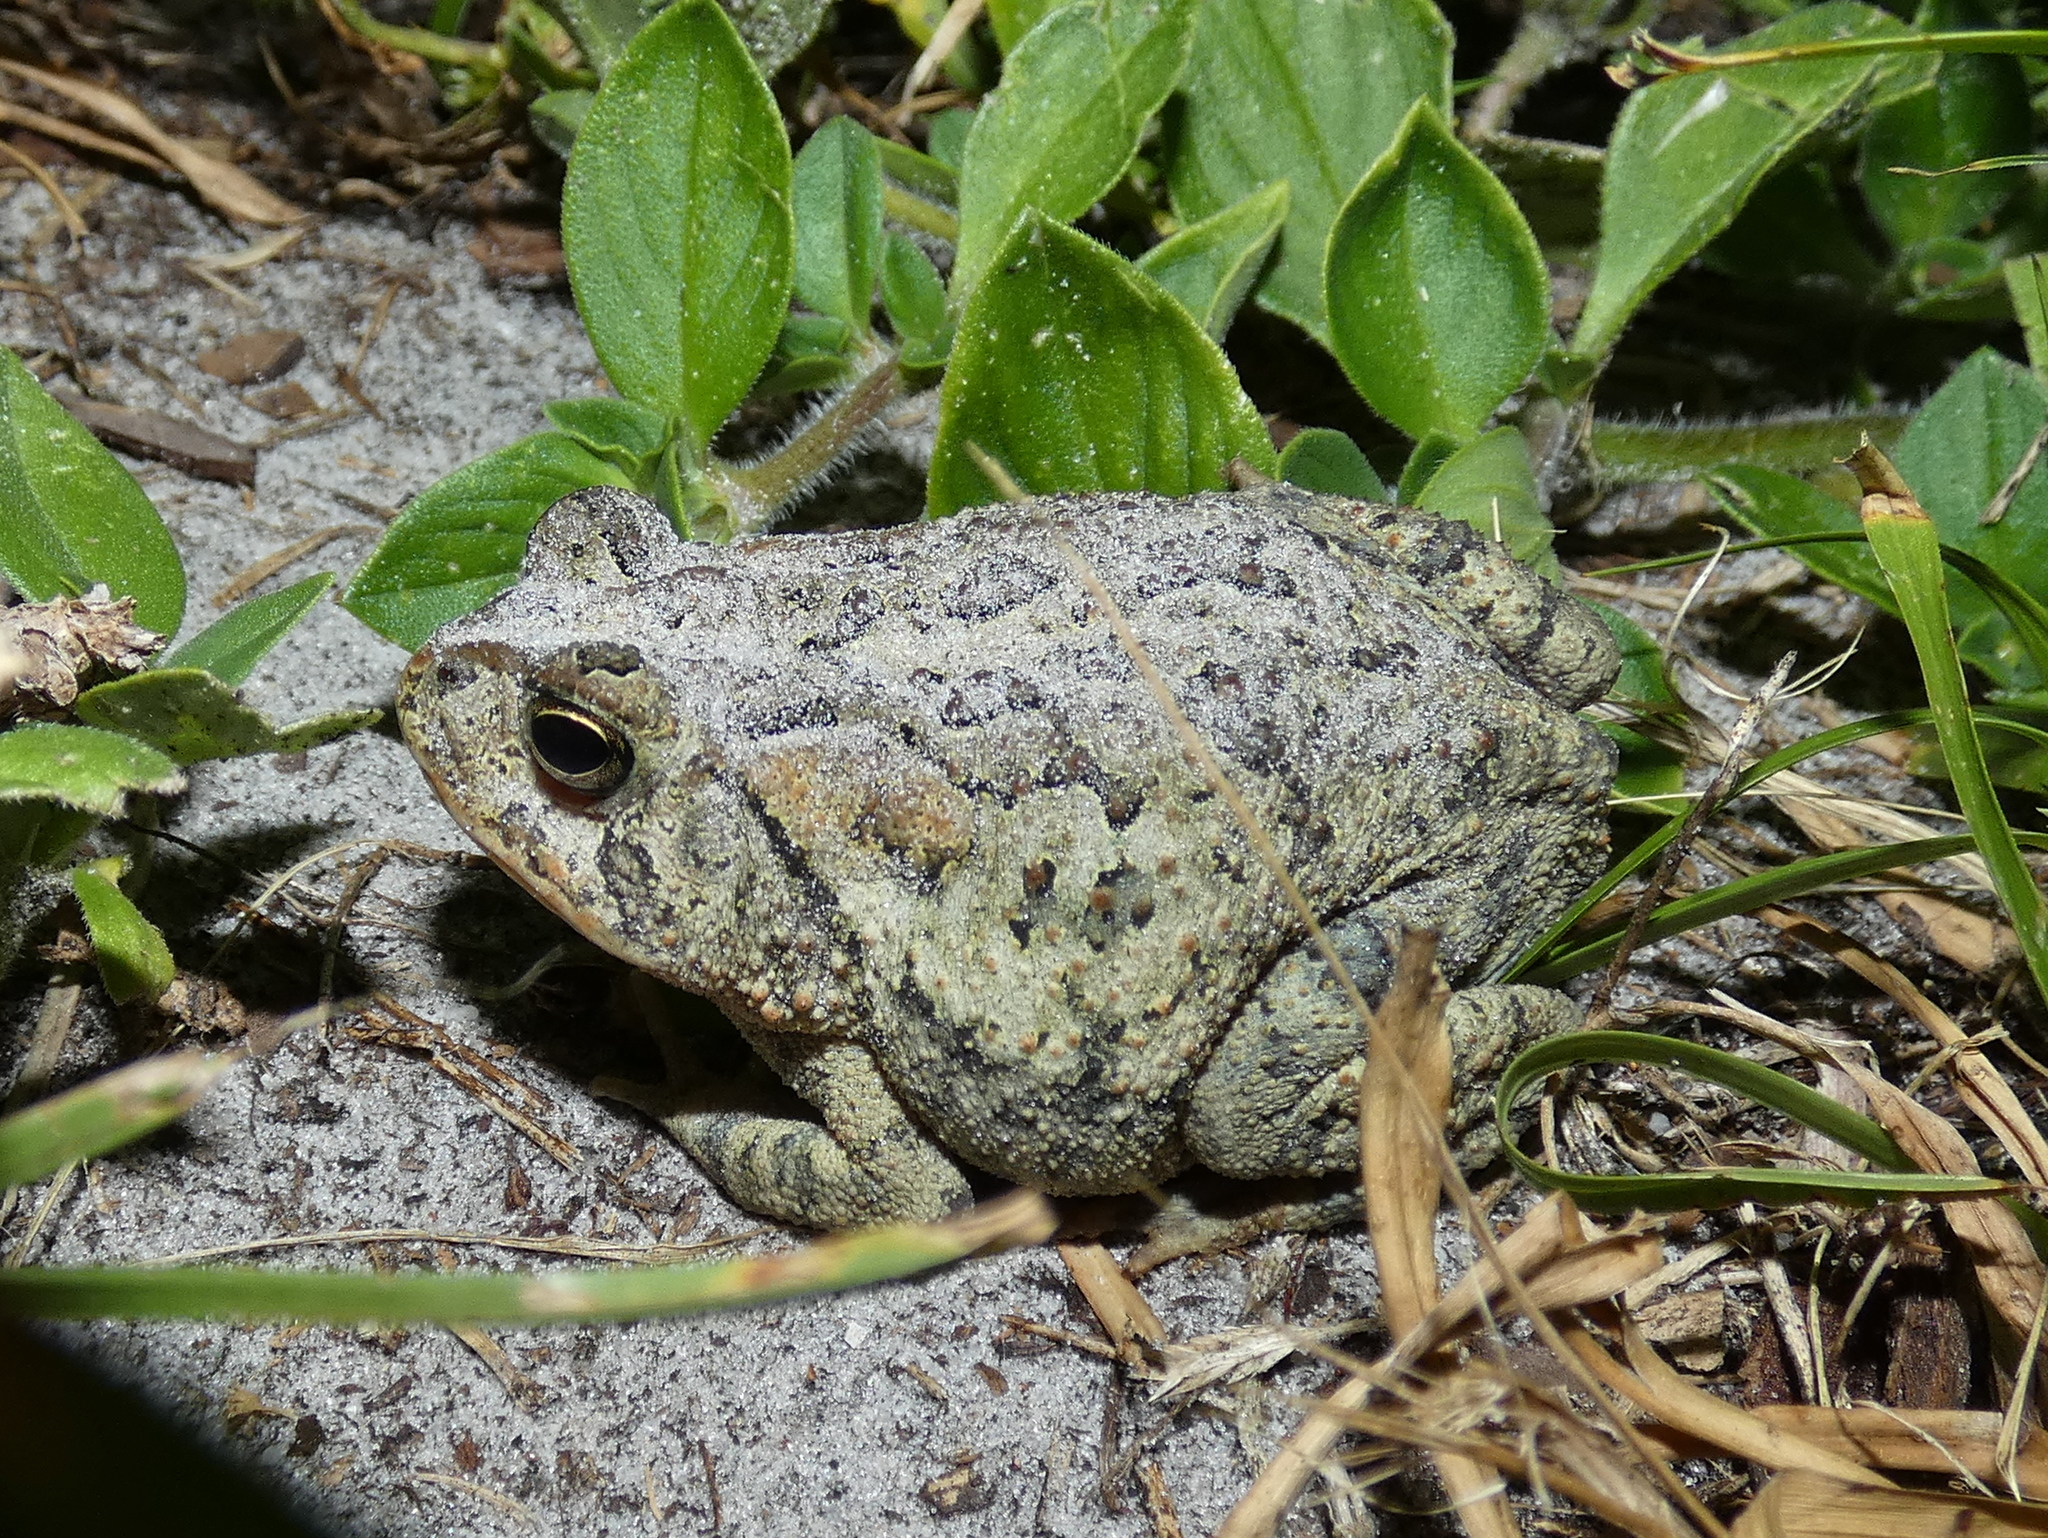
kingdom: Animalia
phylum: Chordata
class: Amphibia
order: Anura
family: Bufonidae
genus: Anaxyrus
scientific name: Anaxyrus terrestris
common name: Southern toad
